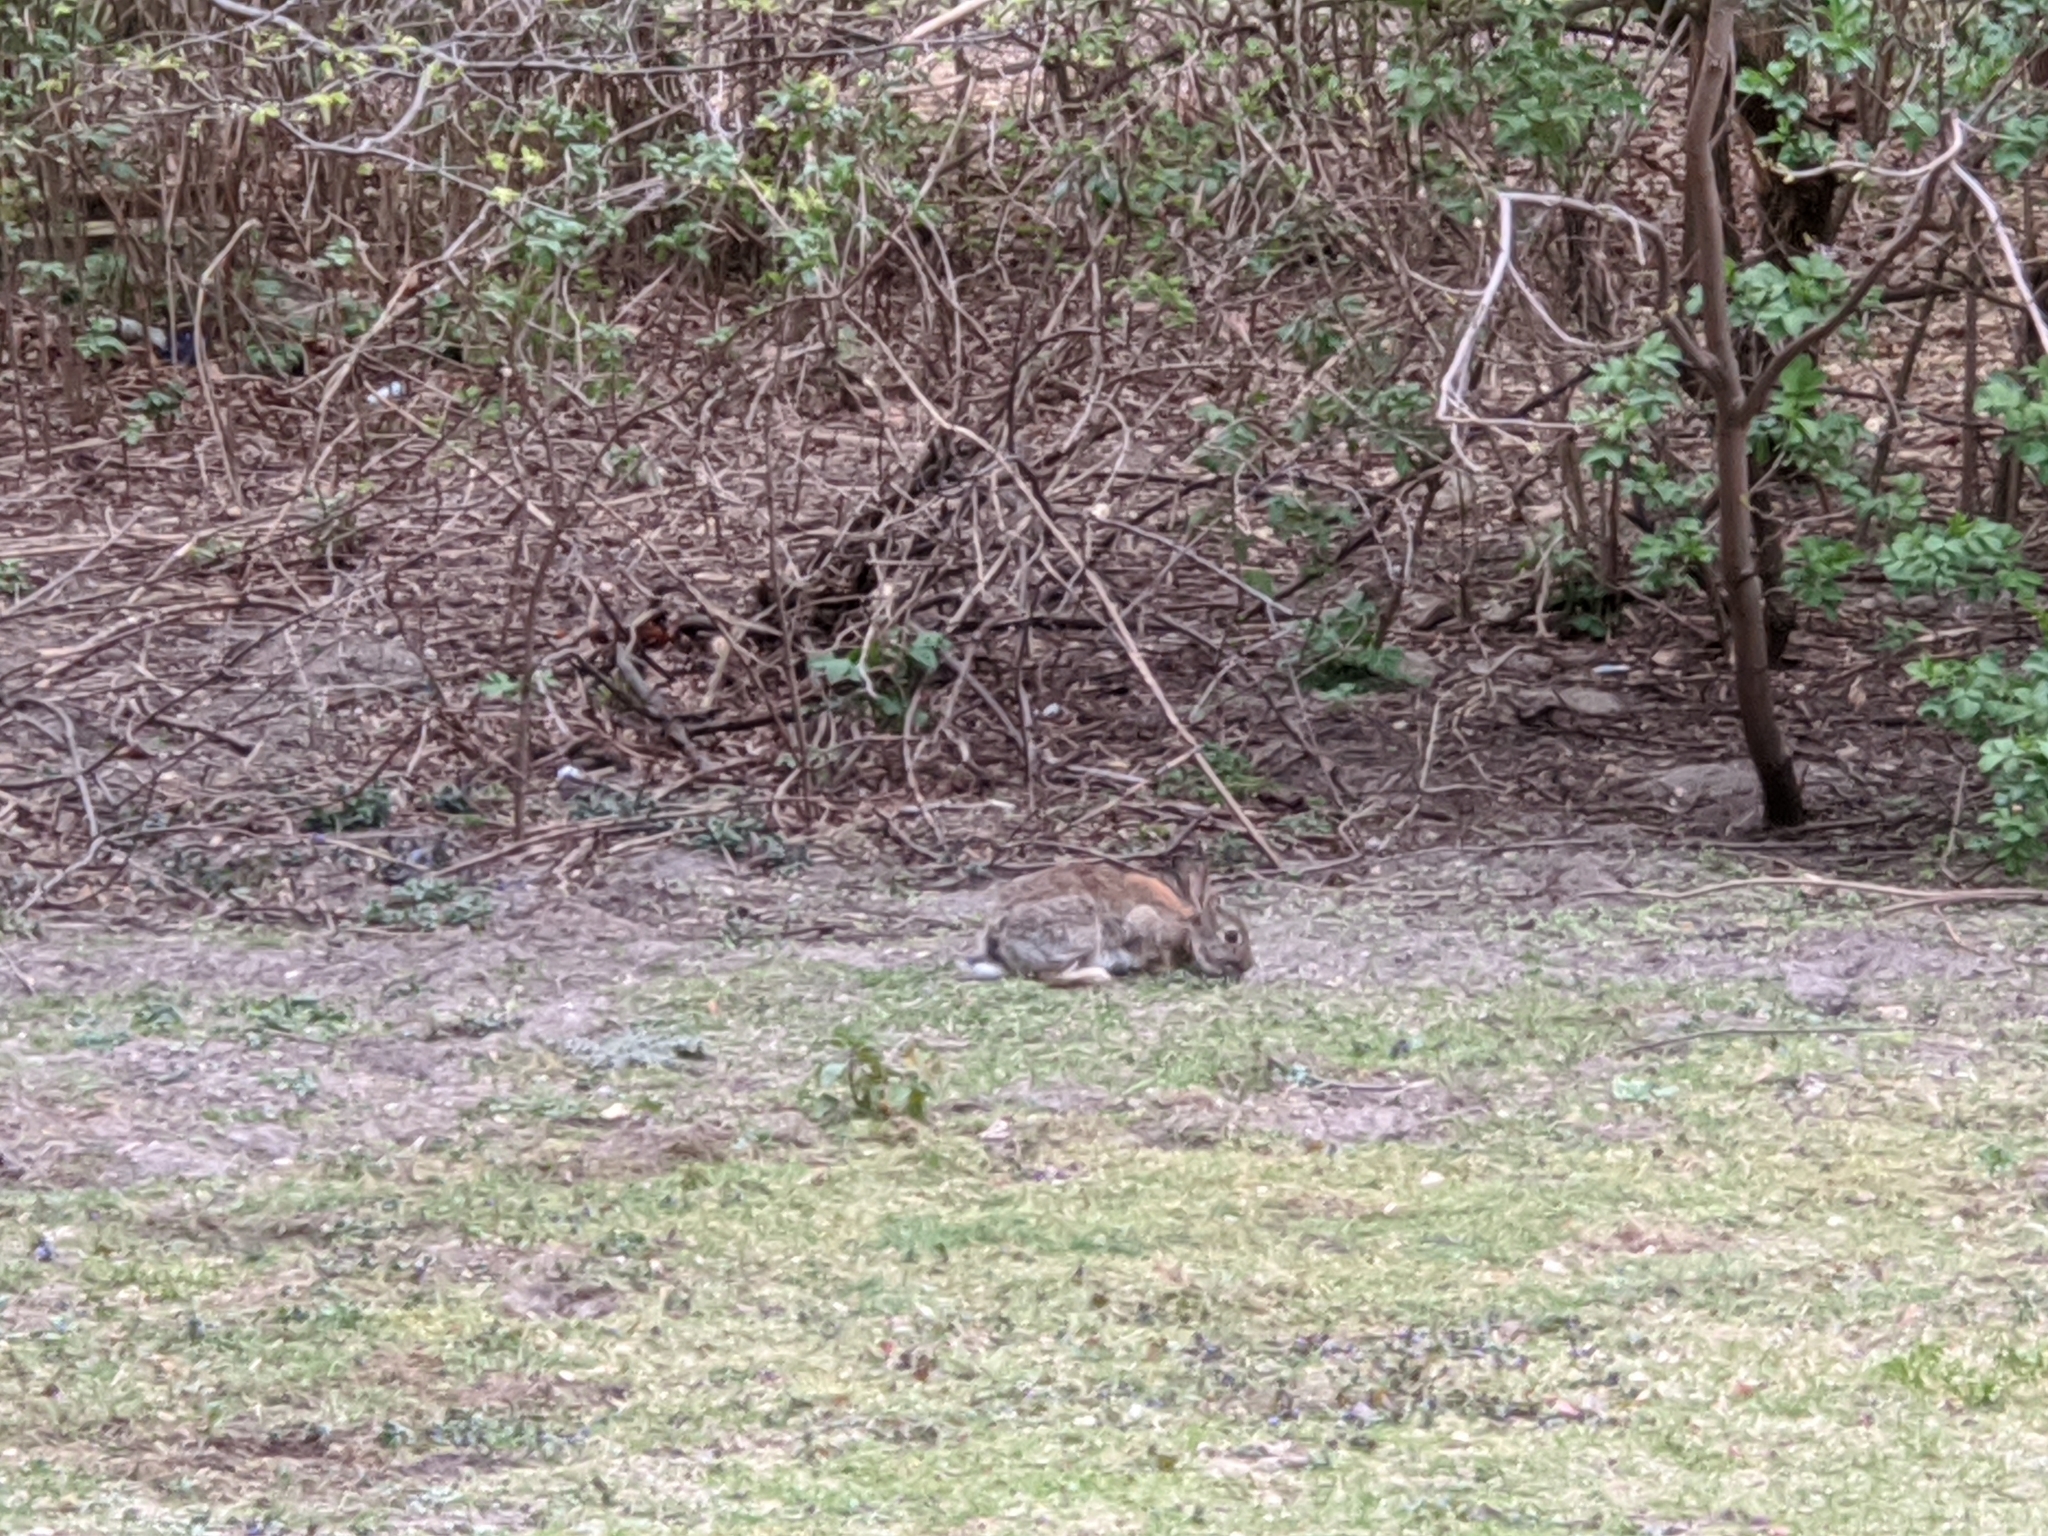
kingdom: Animalia
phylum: Chordata
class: Mammalia
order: Lagomorpha
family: Leporidae
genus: Oryctolagus
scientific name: Oryctolagus cuniculus
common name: European rabbit
